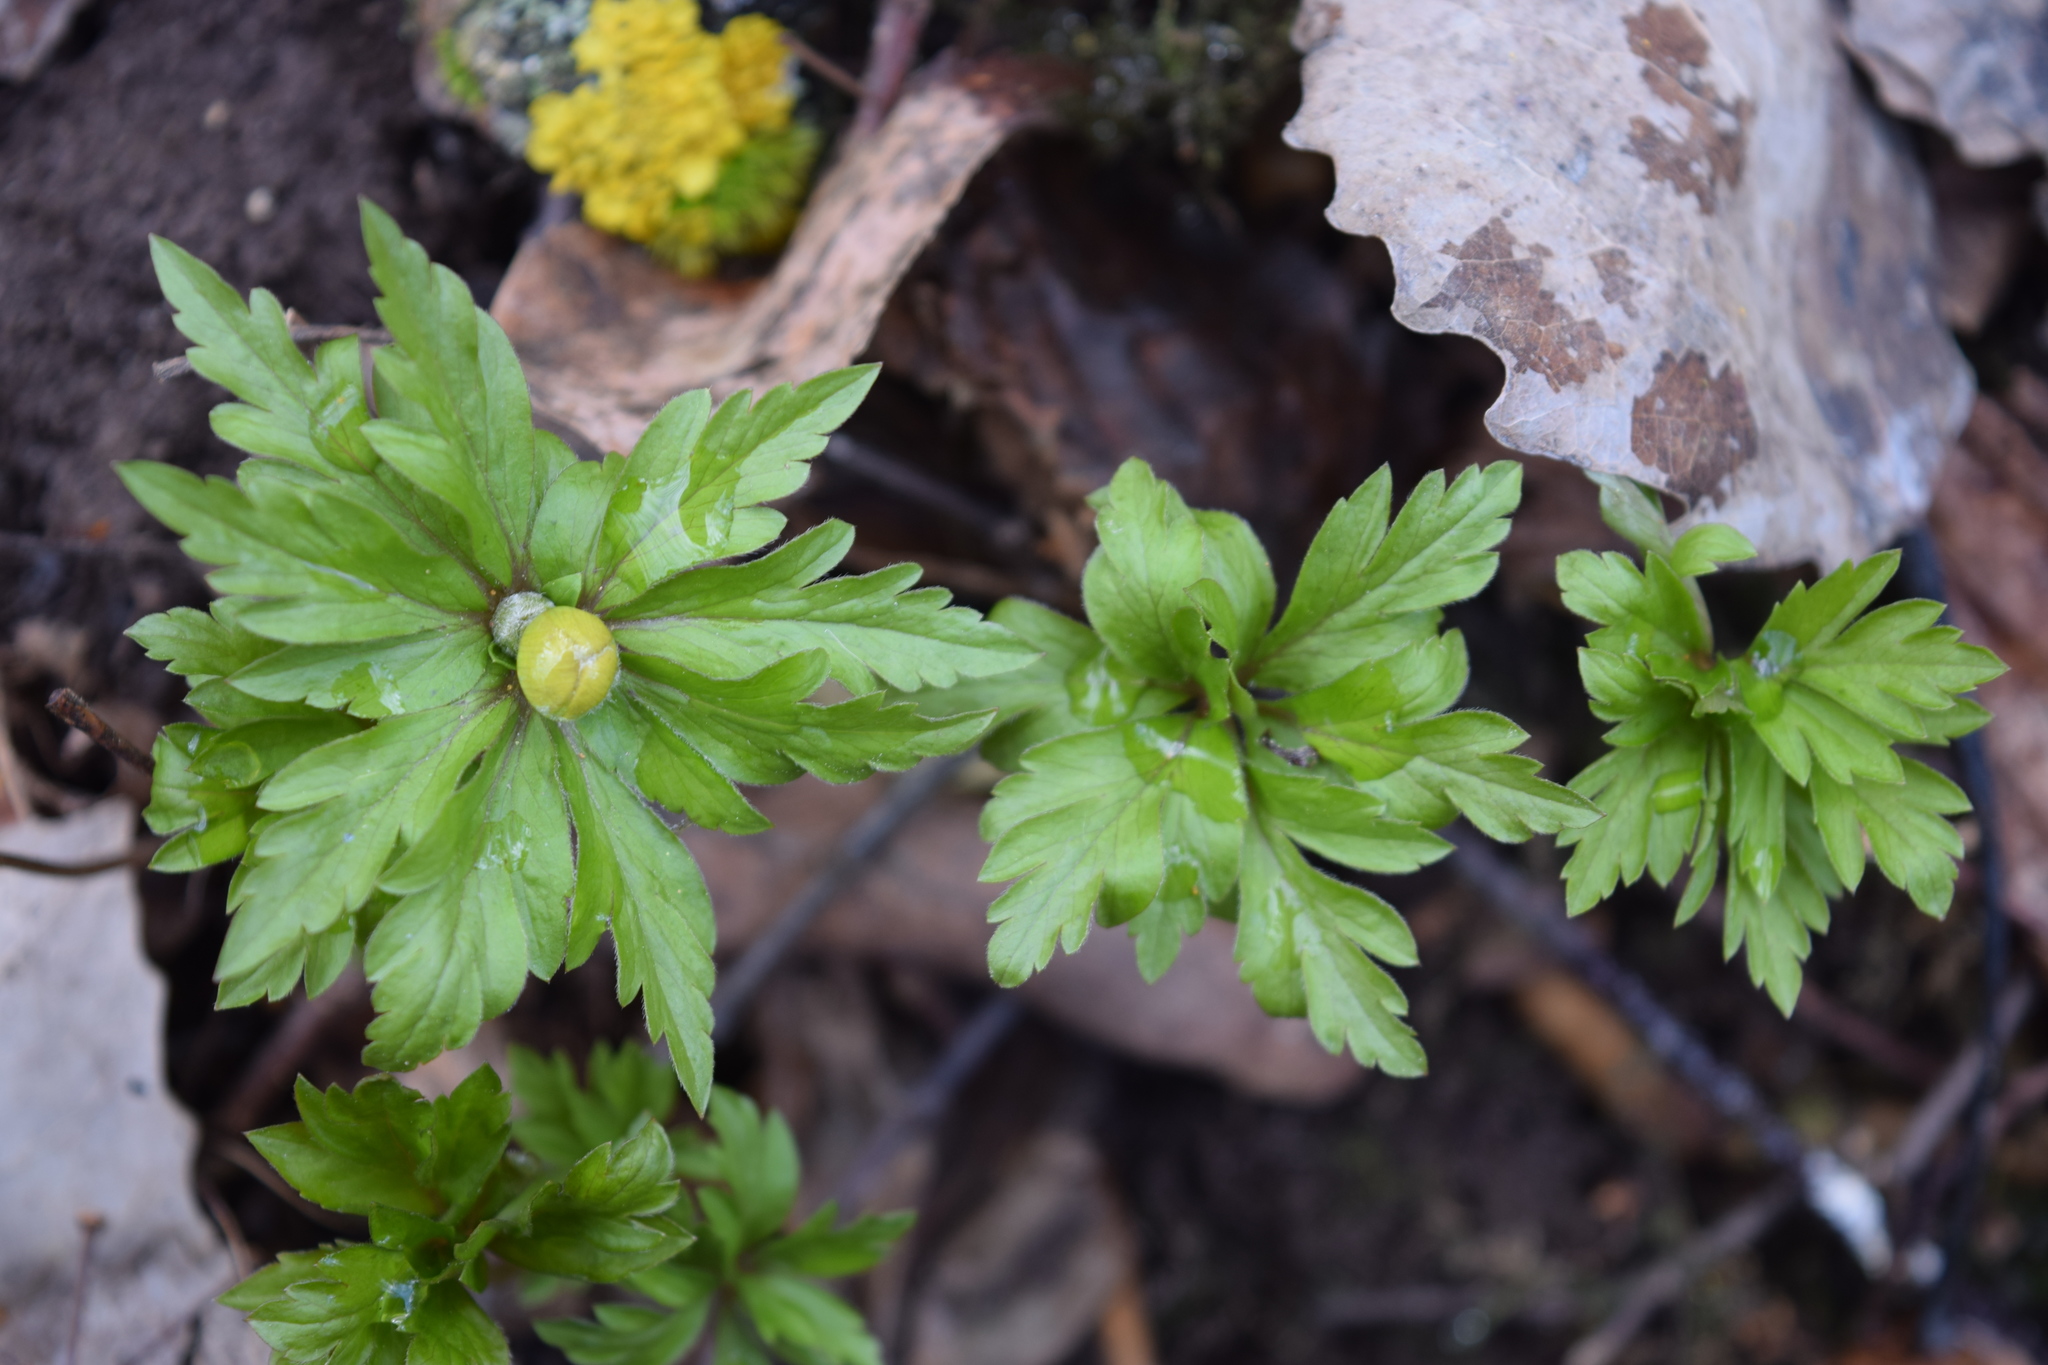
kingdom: Plantae
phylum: Tracheophyta
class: Magnoliopsida
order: Ranunculales
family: Ranunculaceae
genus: Anemone
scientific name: Anemone ranunculoides
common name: Yellow anemone
